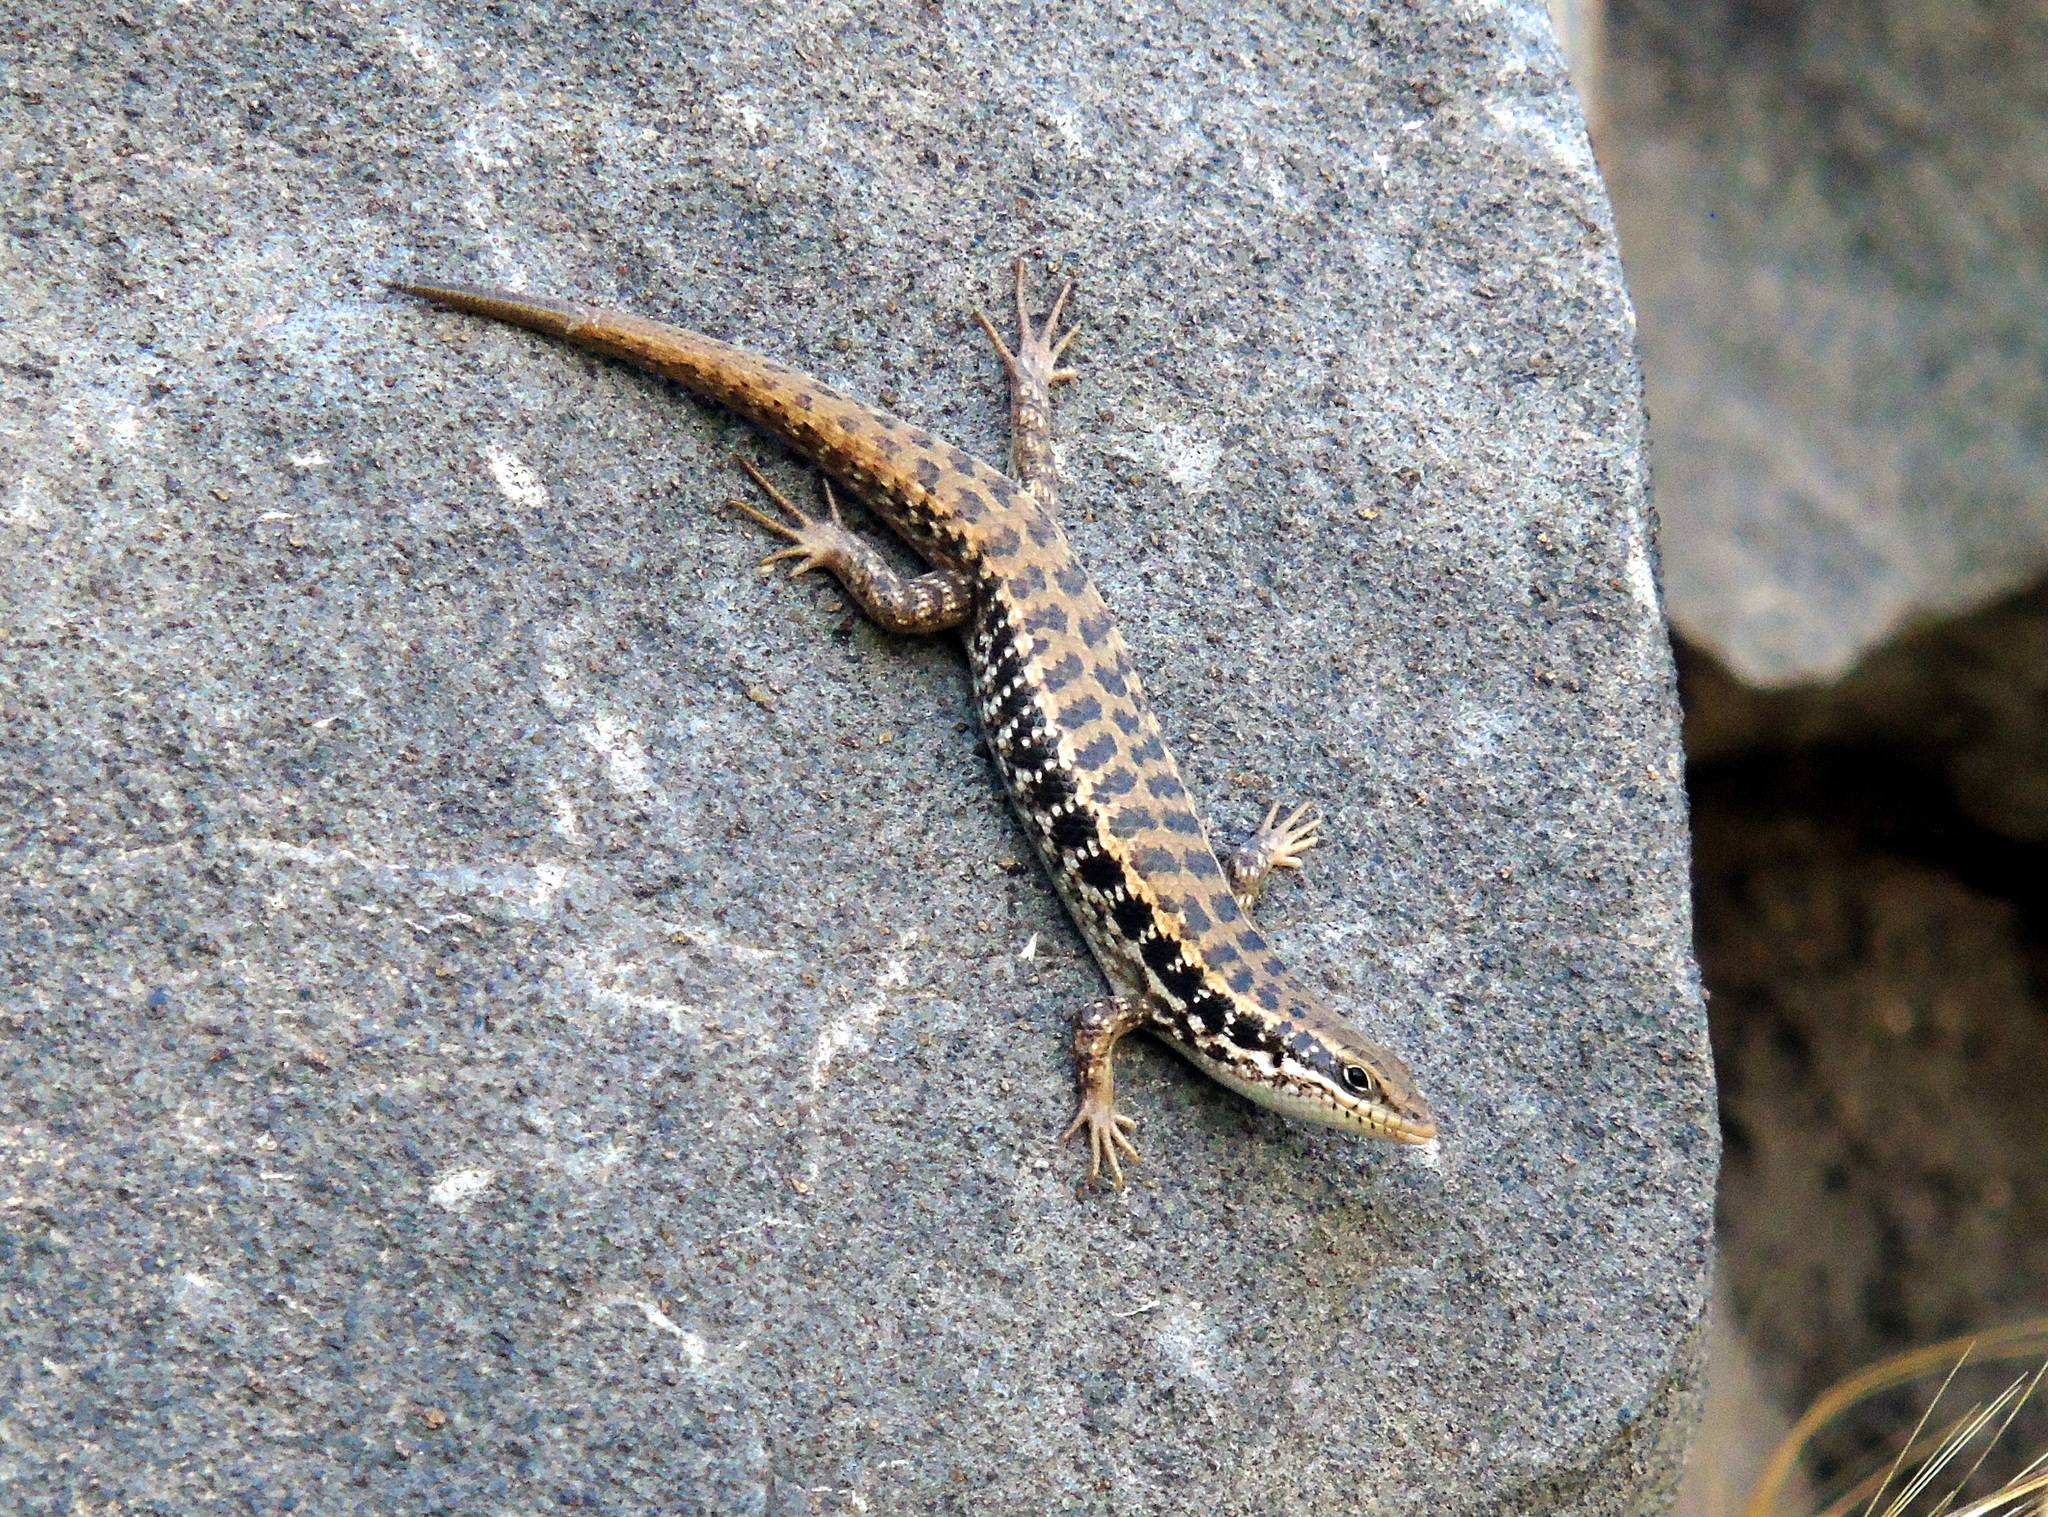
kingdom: Animalia
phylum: Chordata
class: Squamata
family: Scincidae
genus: Heremites
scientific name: Heremites auratus
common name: Golden grass mabuya
